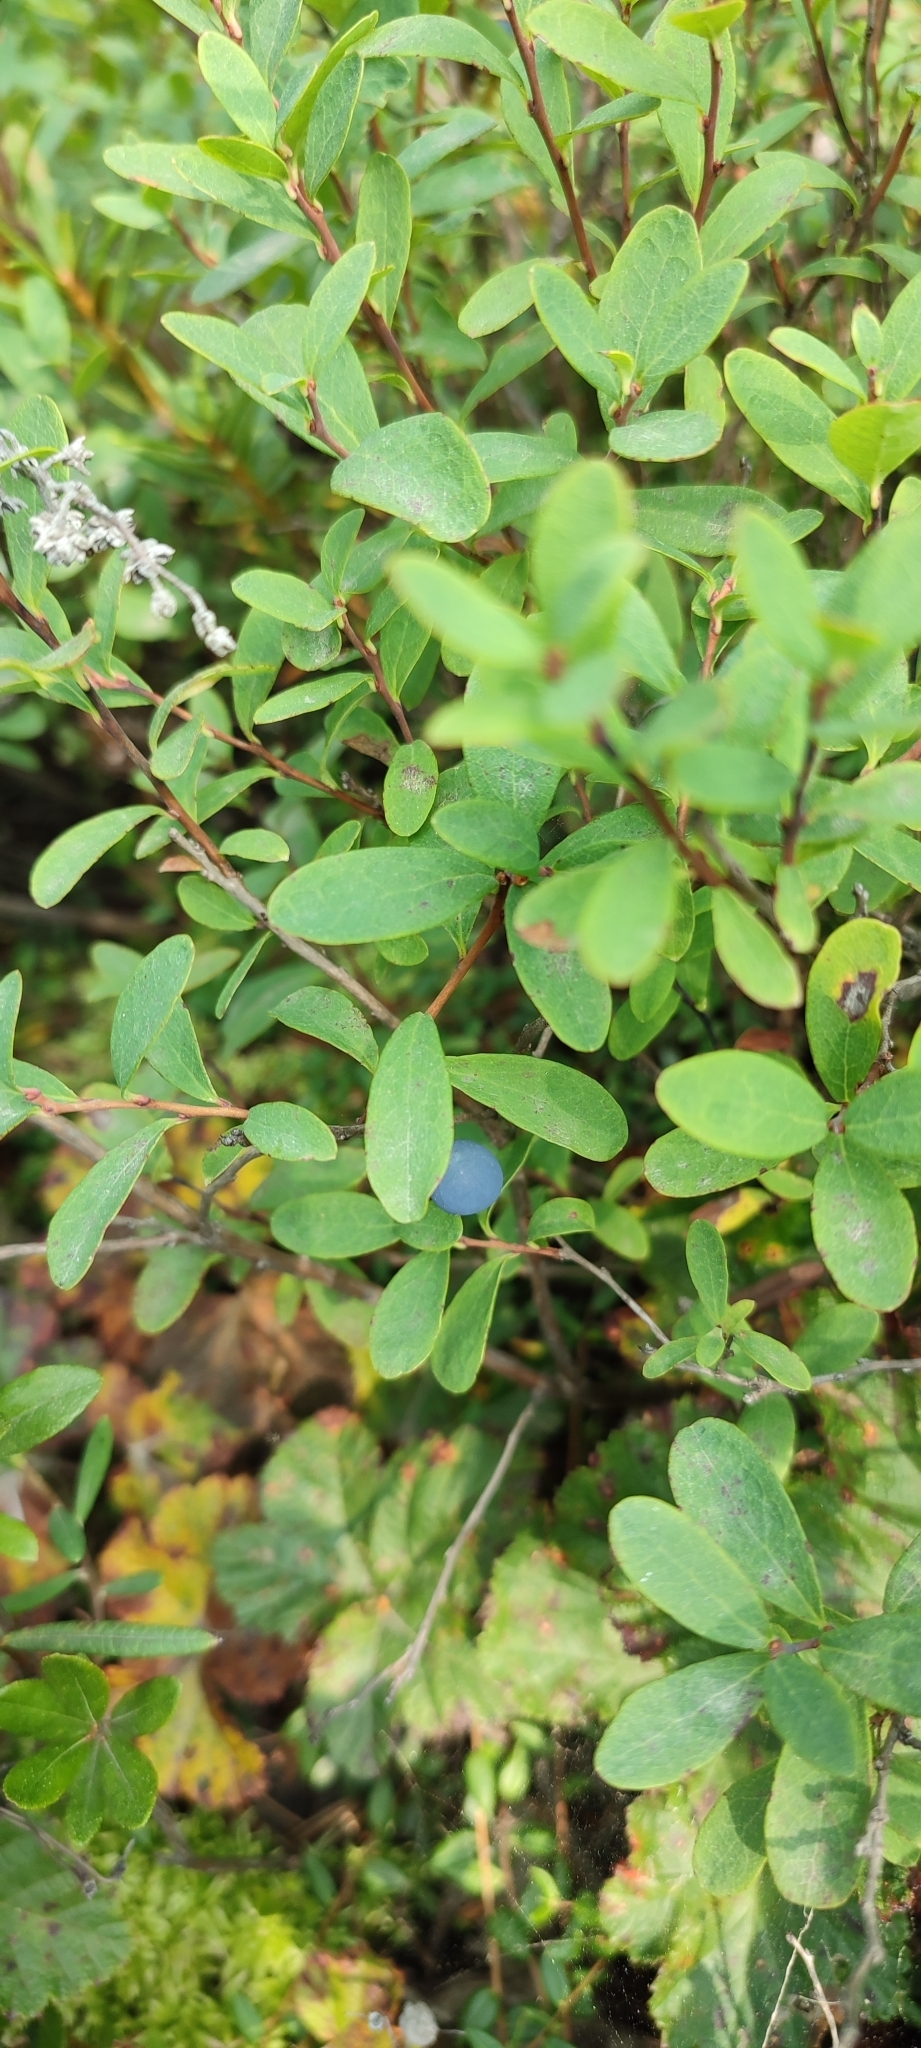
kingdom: Plantae
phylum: Tracheophyta
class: Magnoliopsida
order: Ericales
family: Ericaceae
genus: Vaccinium
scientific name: Vaccinium uliginosum
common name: Bog bilberry
